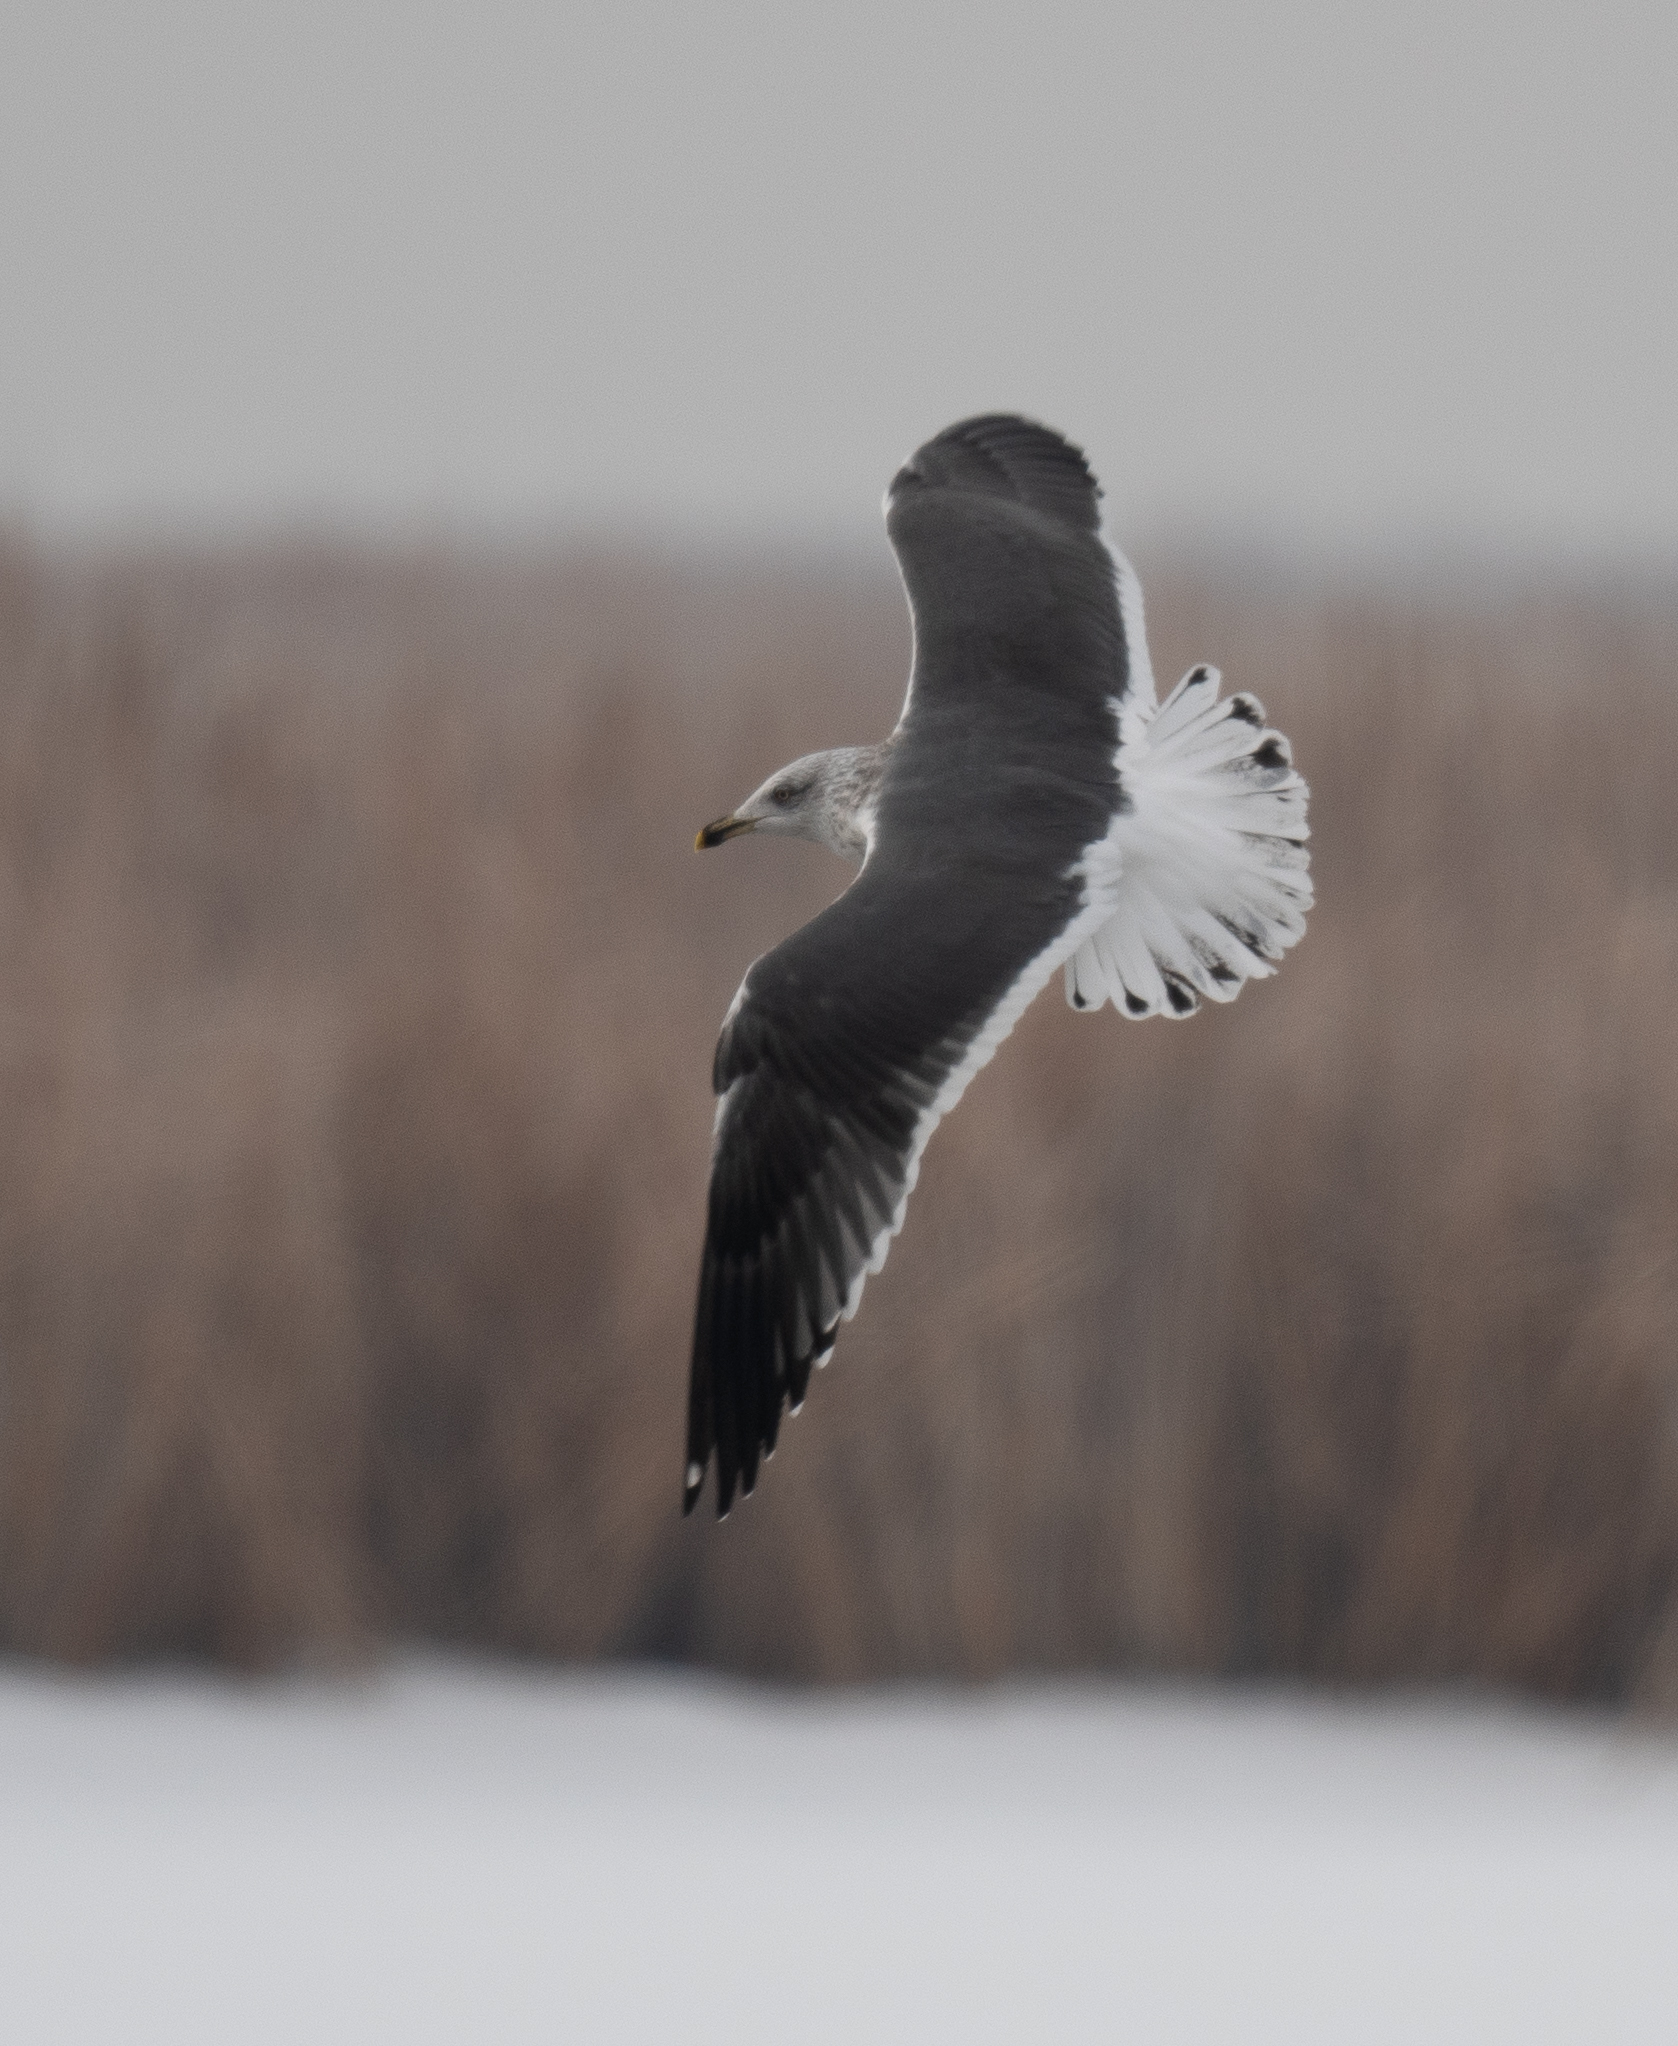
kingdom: Animalia
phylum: Chordata
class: Aves
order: Charadriiformes
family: Laridae
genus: Larus
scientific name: Larus fuscus
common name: Lesser black-backed gull
